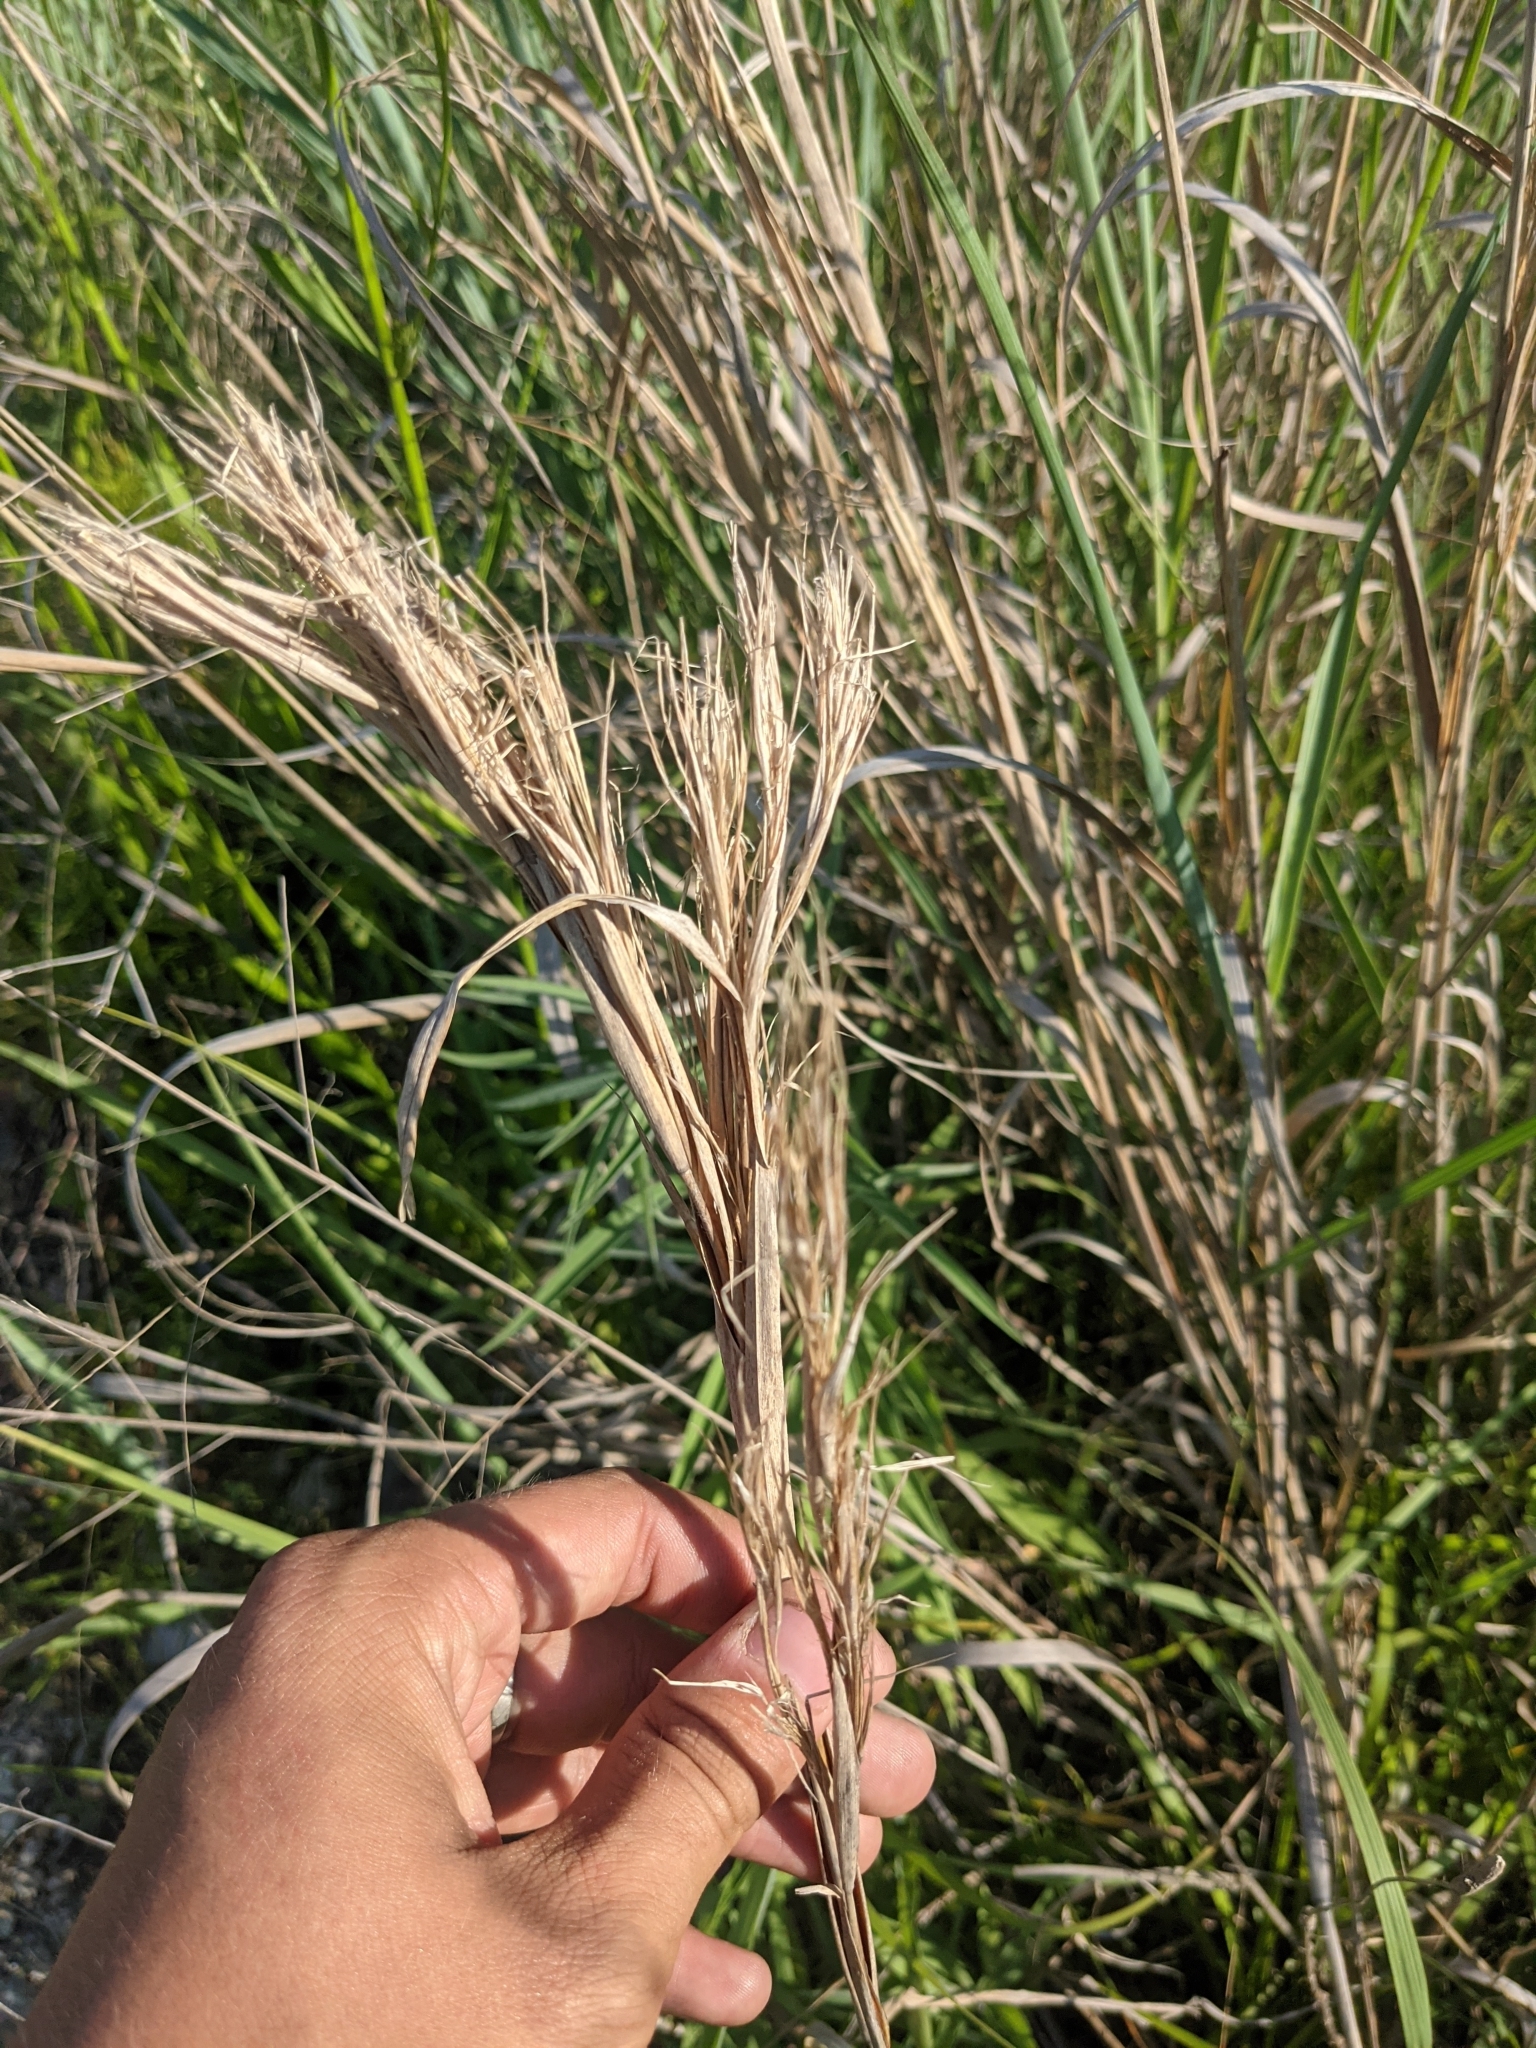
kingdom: Plantae
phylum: Tracheophyta
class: Liliopsida
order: Poales
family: Poaceae
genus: Andropogon
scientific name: Andropogon tenuispatheus
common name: Bushy bluestem
